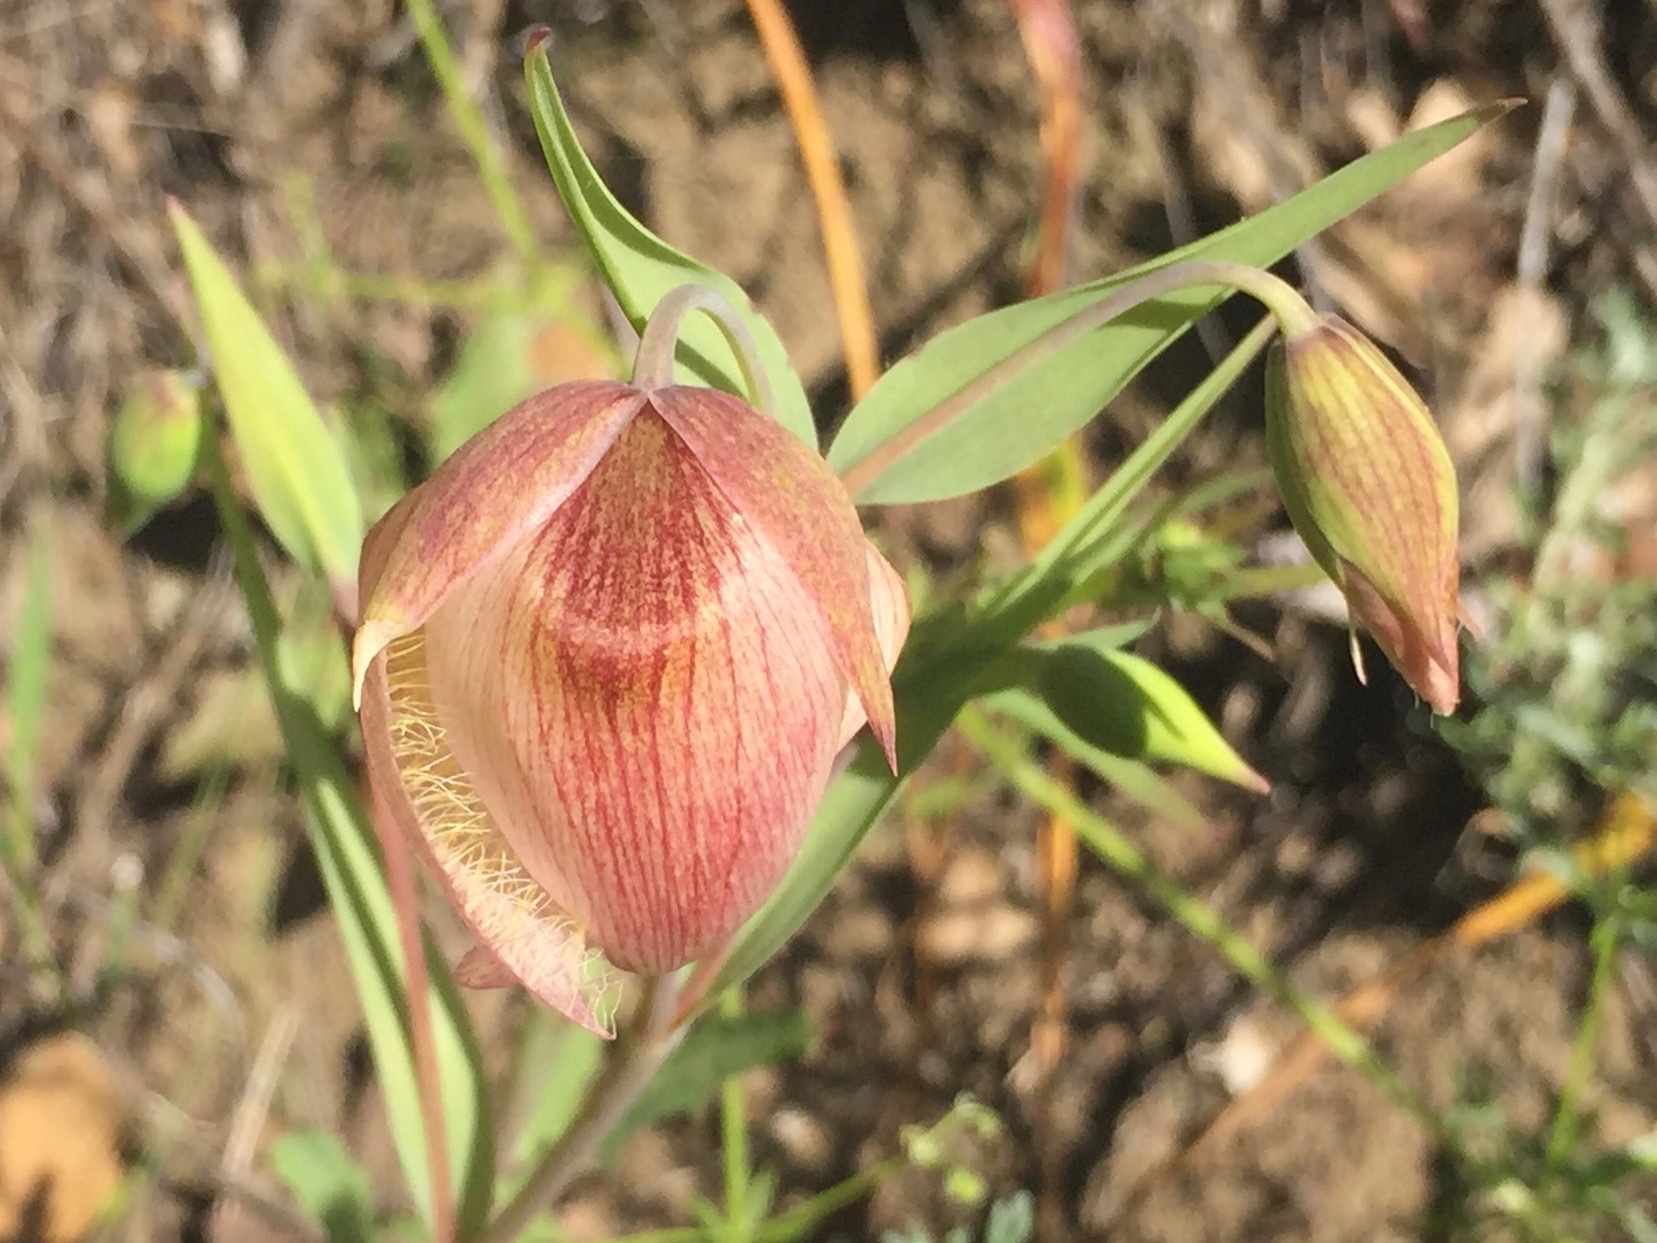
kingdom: Plantae
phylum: Tracheophyta
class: Liliopsida
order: Liliales
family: Liliaceae
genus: Calochortus
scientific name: Calochortus albus
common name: Fairy-lantern
